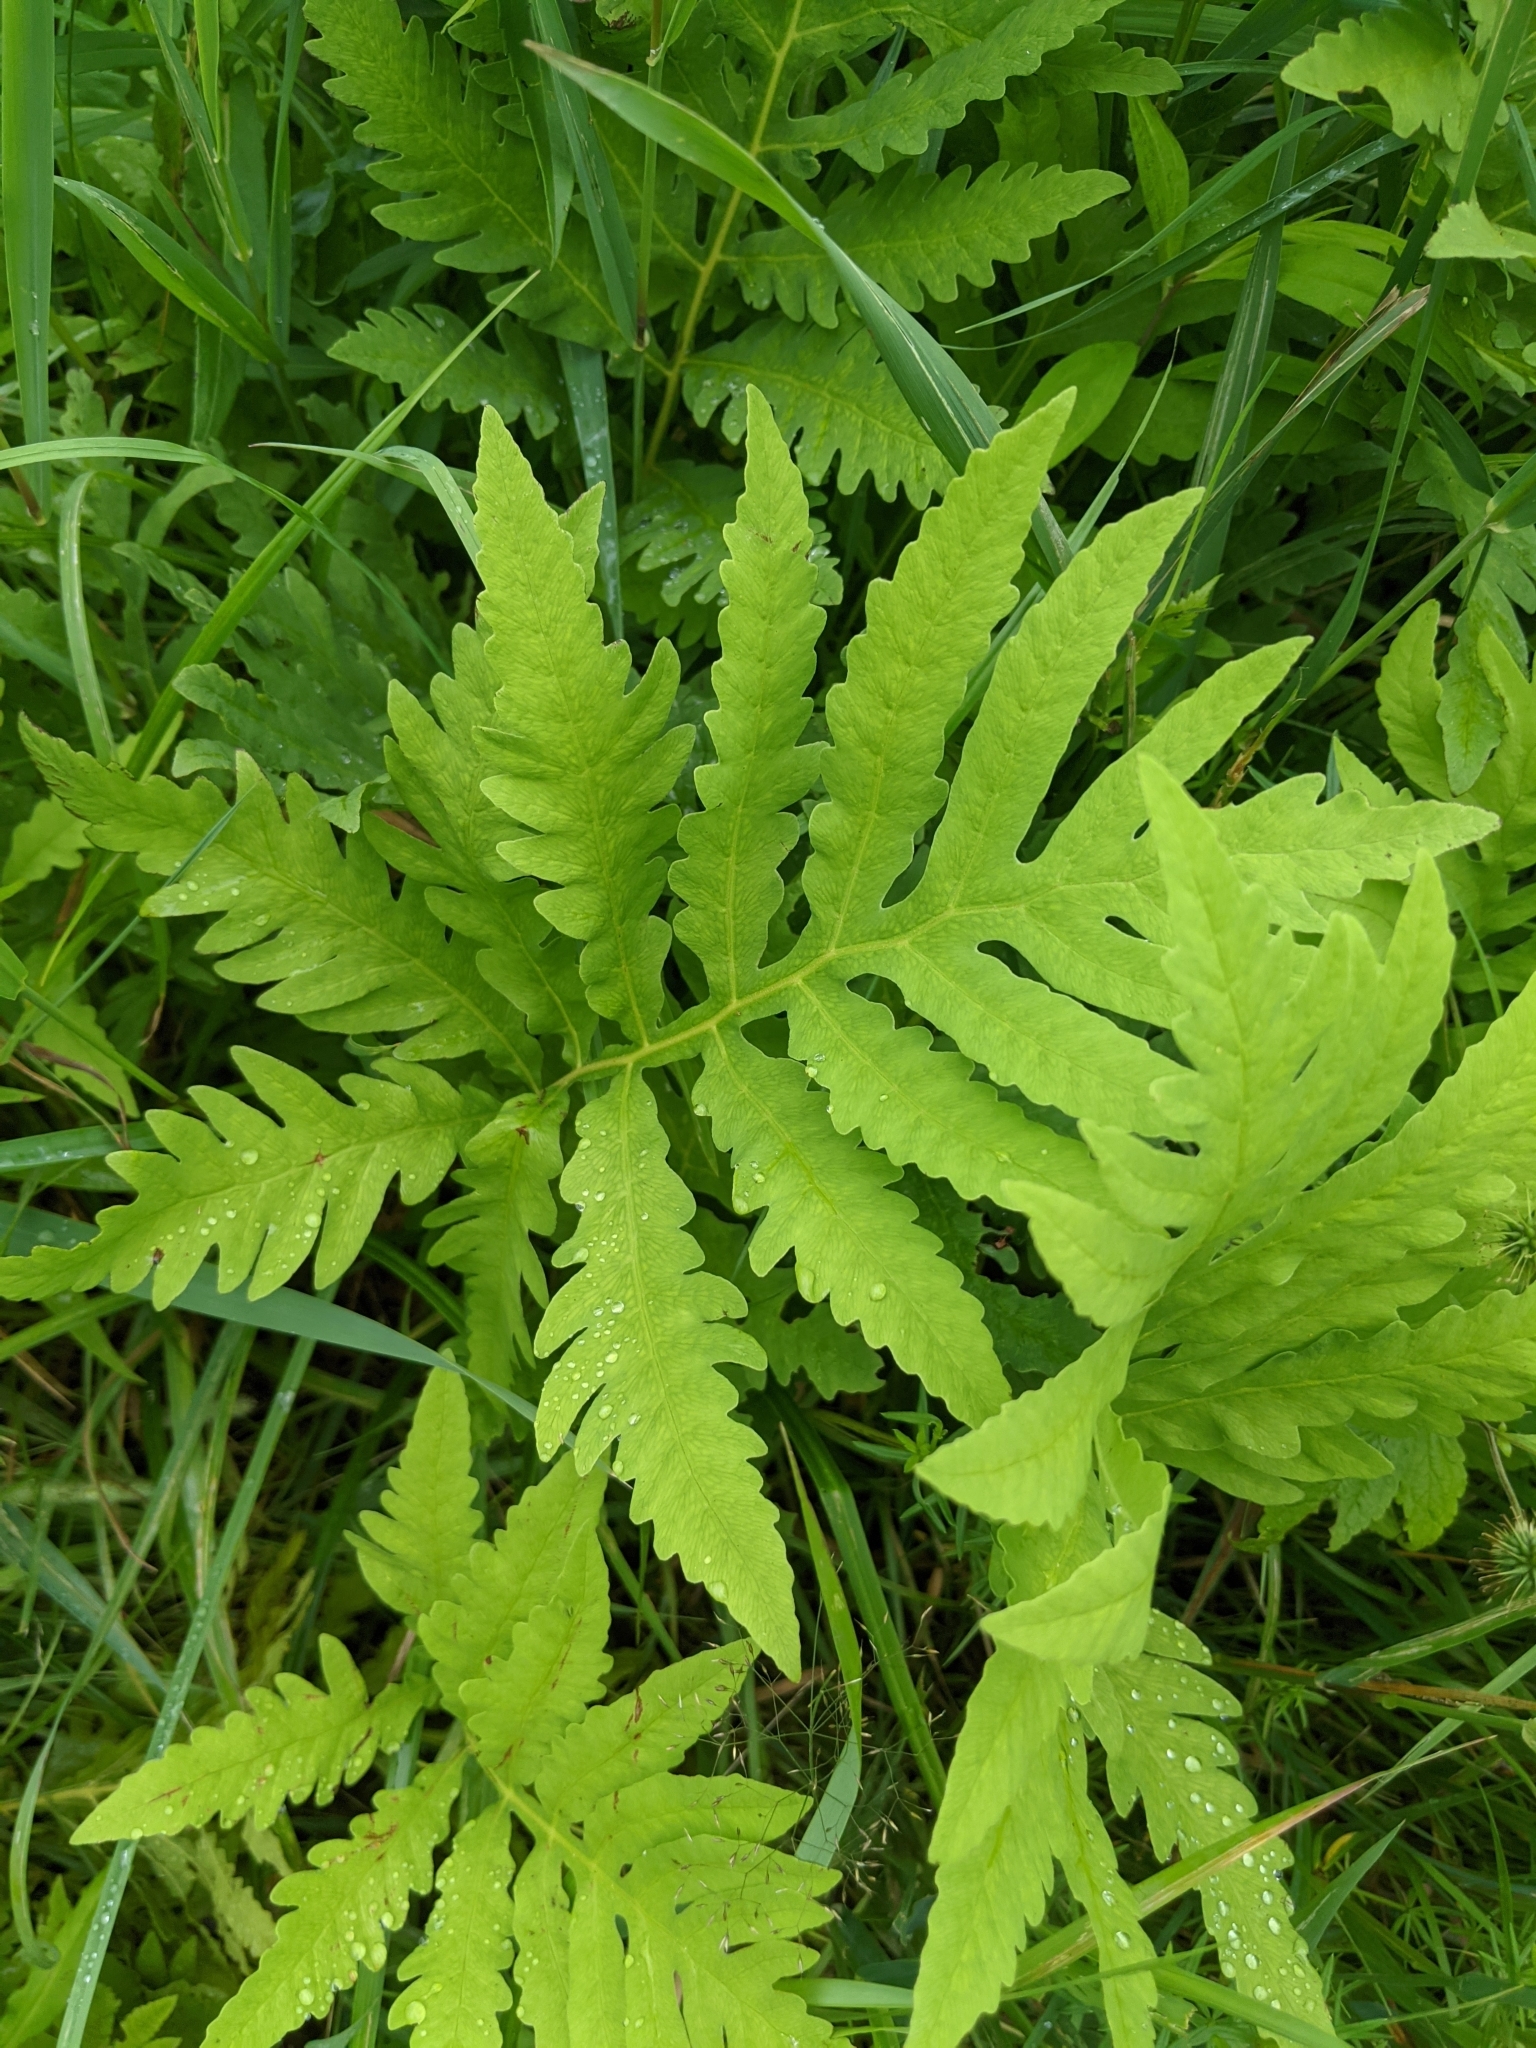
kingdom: Plantae
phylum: Tracheophyta
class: Polypodiopsida
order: Polypodiales
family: Onocleaceae
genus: Onoclea
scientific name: Onoclea sensibilis
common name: Sensitive fern
